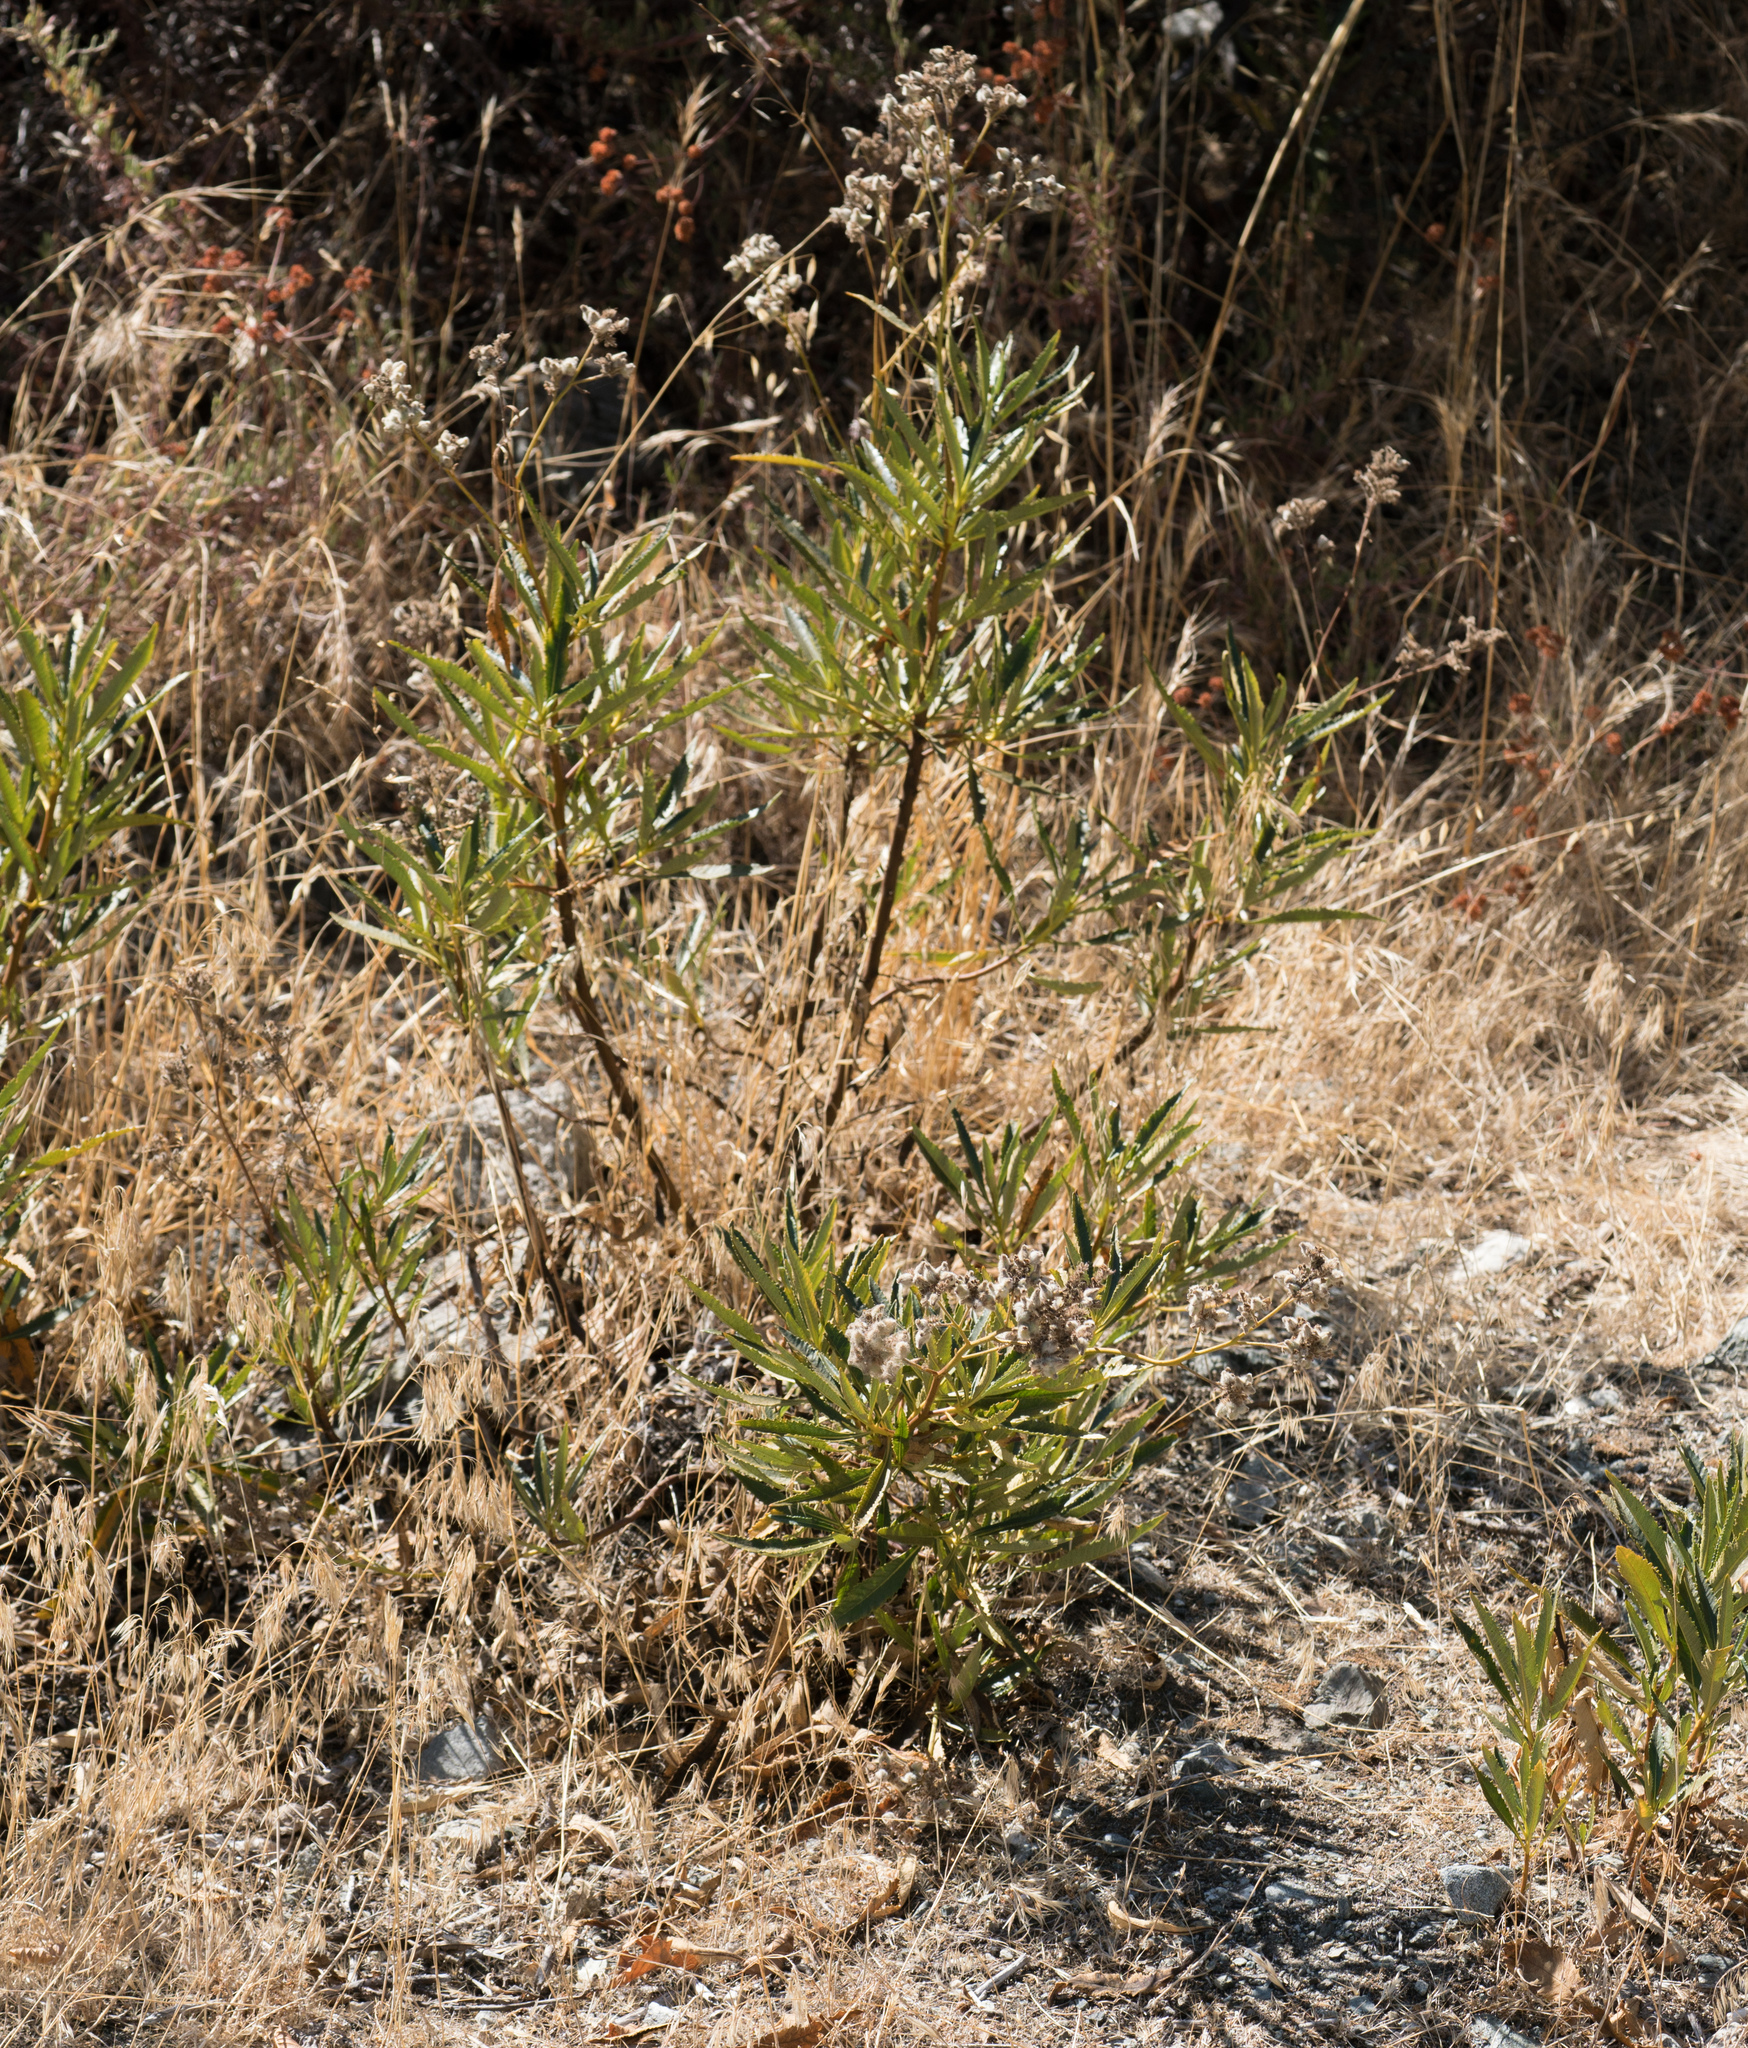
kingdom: Plantae
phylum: Tracheophyta
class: Magnoliopsida
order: Boraginales
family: Namaceae
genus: Eriodictyon
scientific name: Eriodictyon trichocalyx
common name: Hairy yerba-santa
